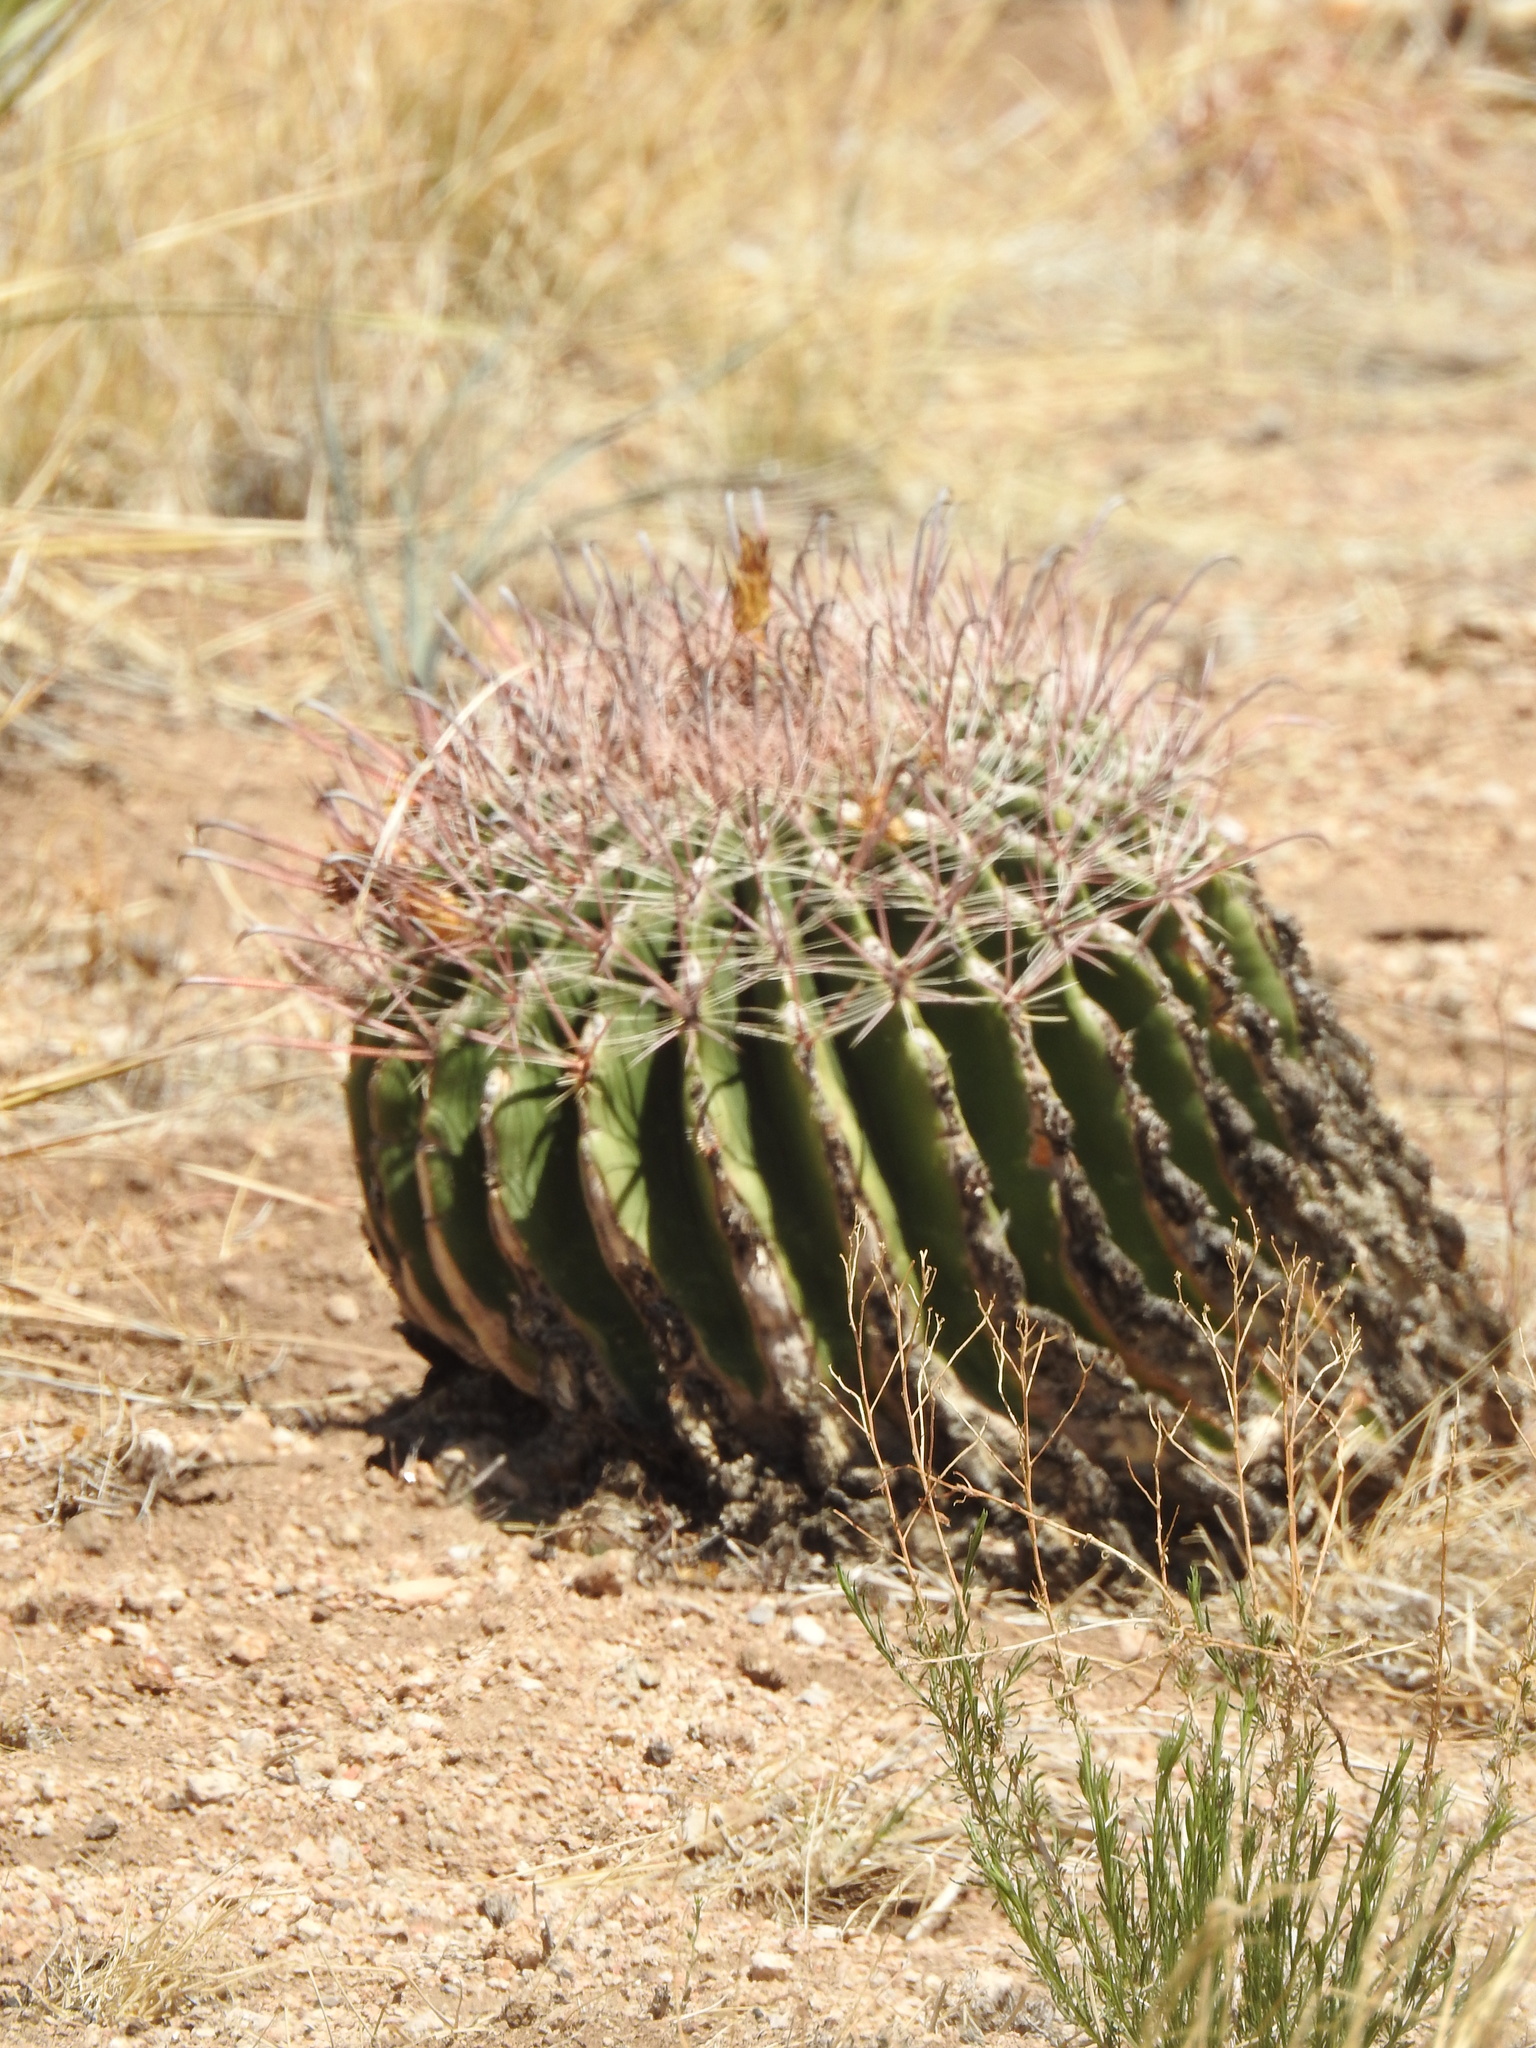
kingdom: Plantae
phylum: Tracheophyta
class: Magnoliopsida
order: Caryophyllales
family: Cactaceae
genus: Ferocactus
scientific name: Ferocactus wislizeni
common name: Candy barrel cactus
